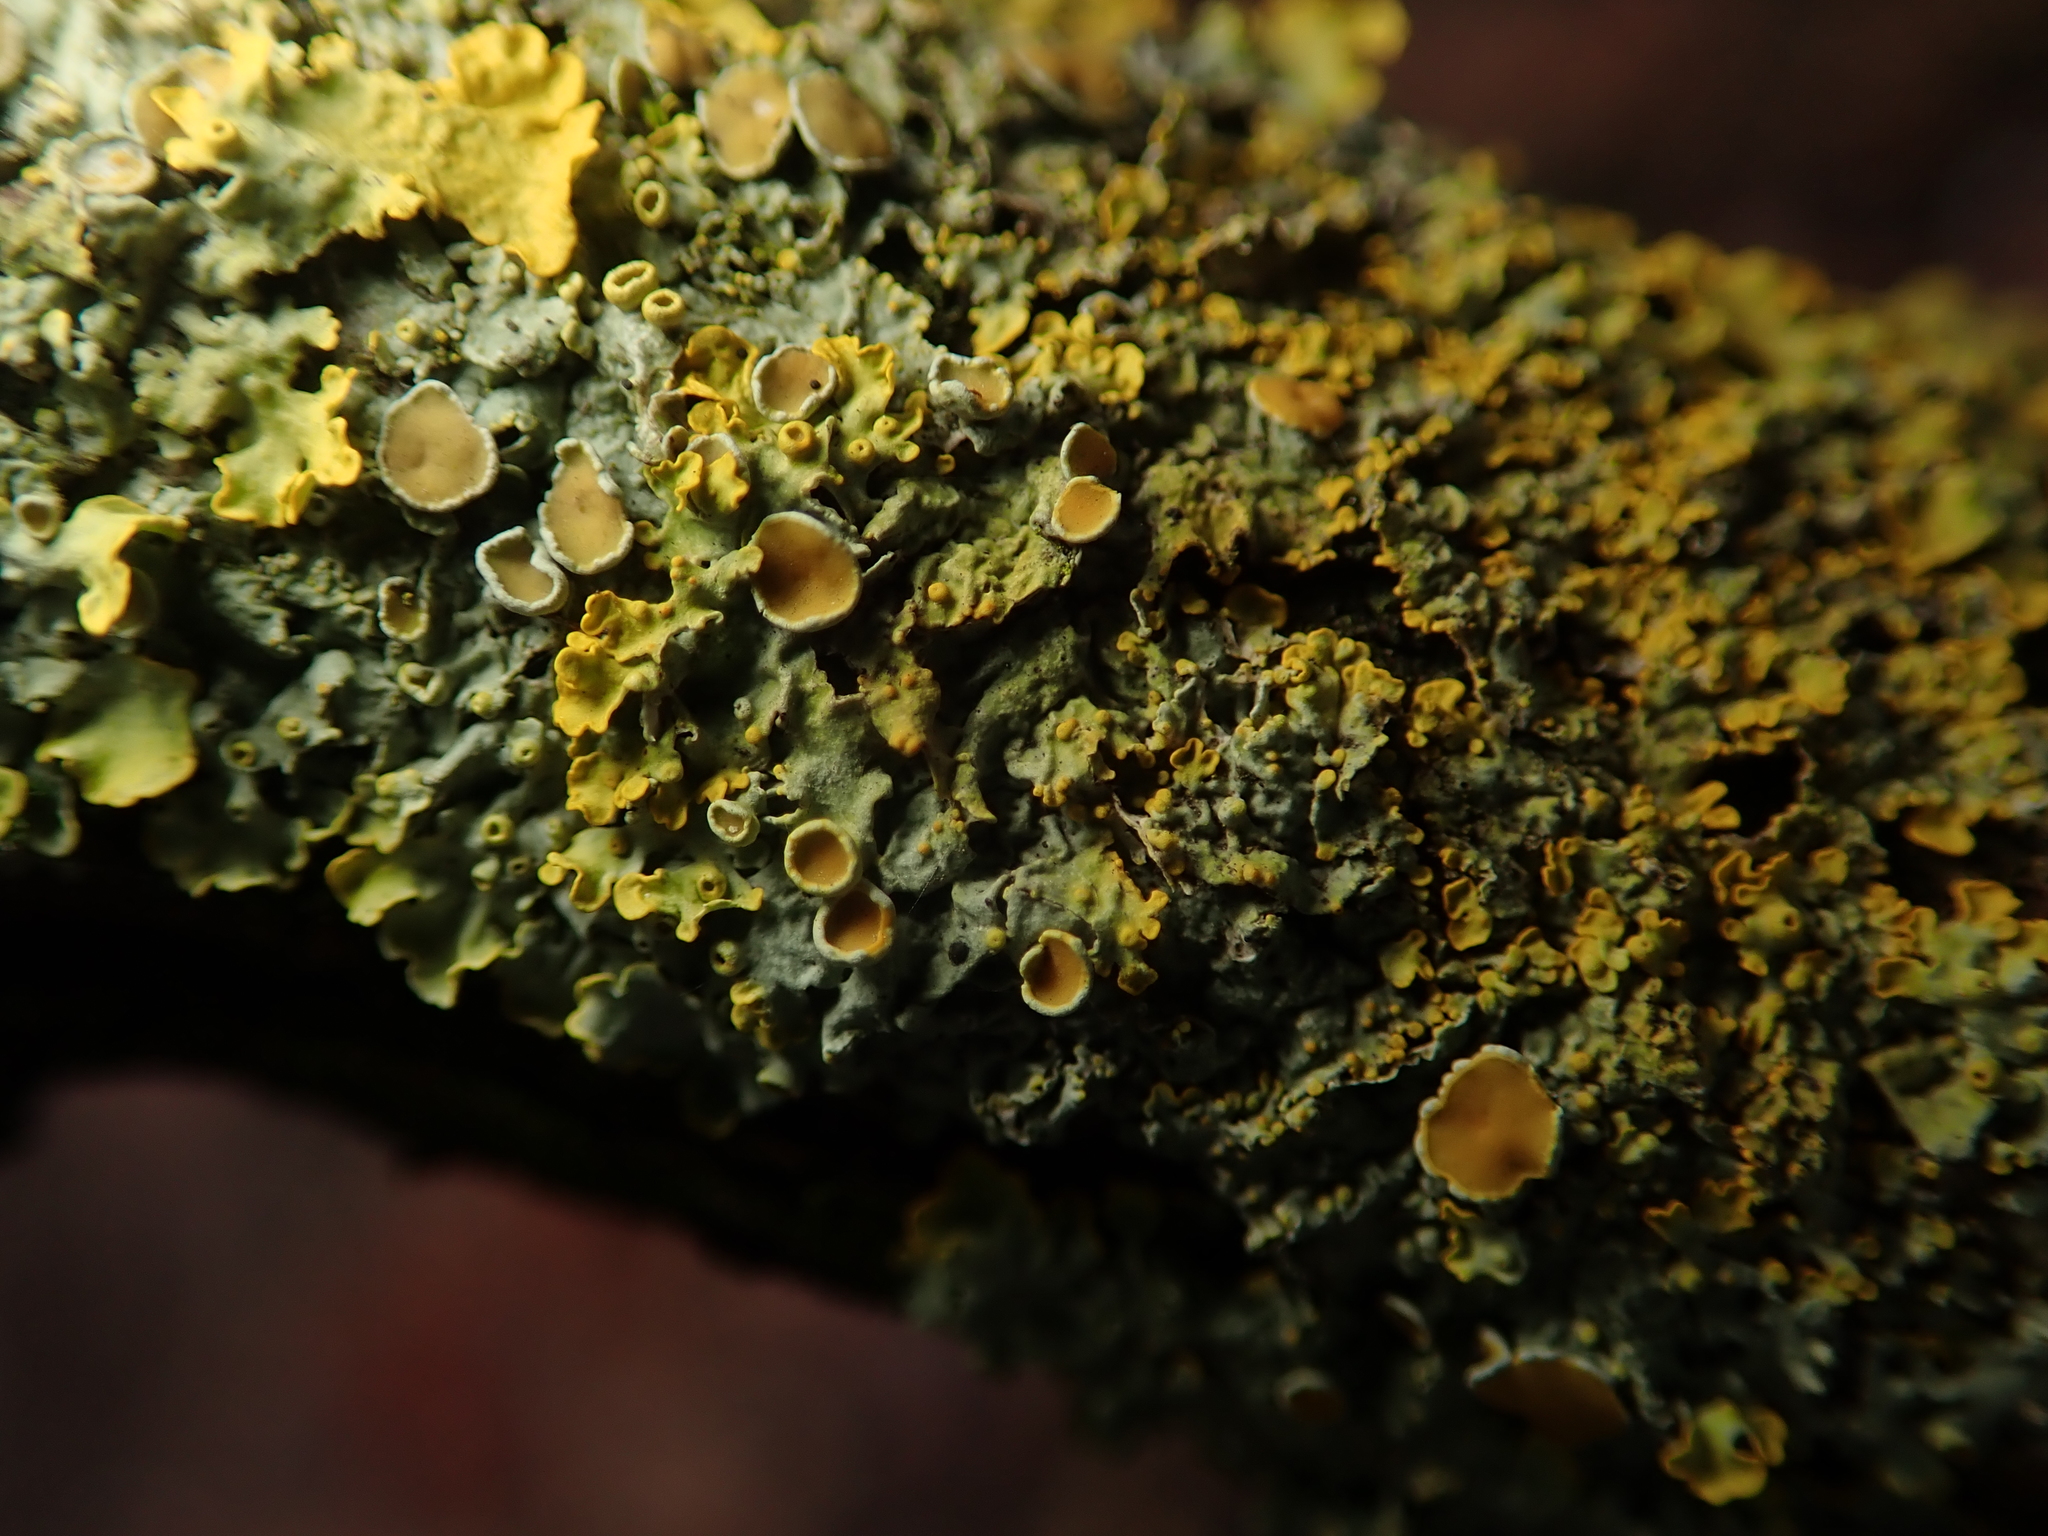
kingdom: Fungi
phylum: Ascomycota
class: Lecanoromycetes
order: Teloschistales
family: Teloschistaceae
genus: Xanthoria
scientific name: Xanthoria parietina
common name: Common orange lichen
